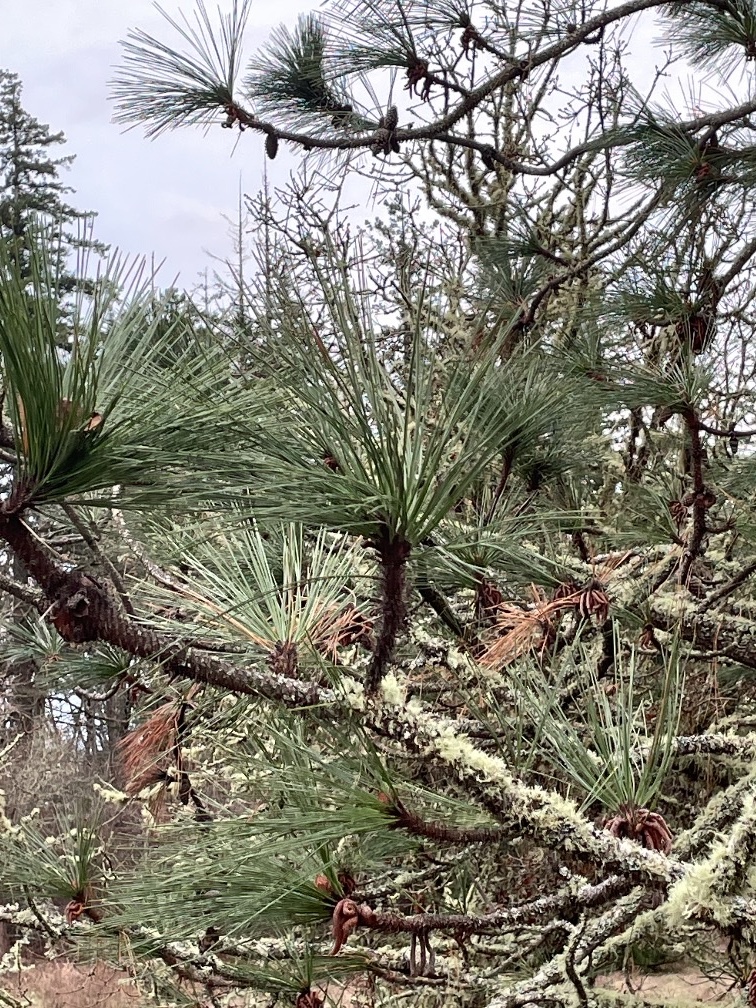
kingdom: Plantae
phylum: Tracheophyta
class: Pinopsida
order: Pinales
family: Pinaceae
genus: Pinus
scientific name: Pinus ponderosa
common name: Western yellow-pine
